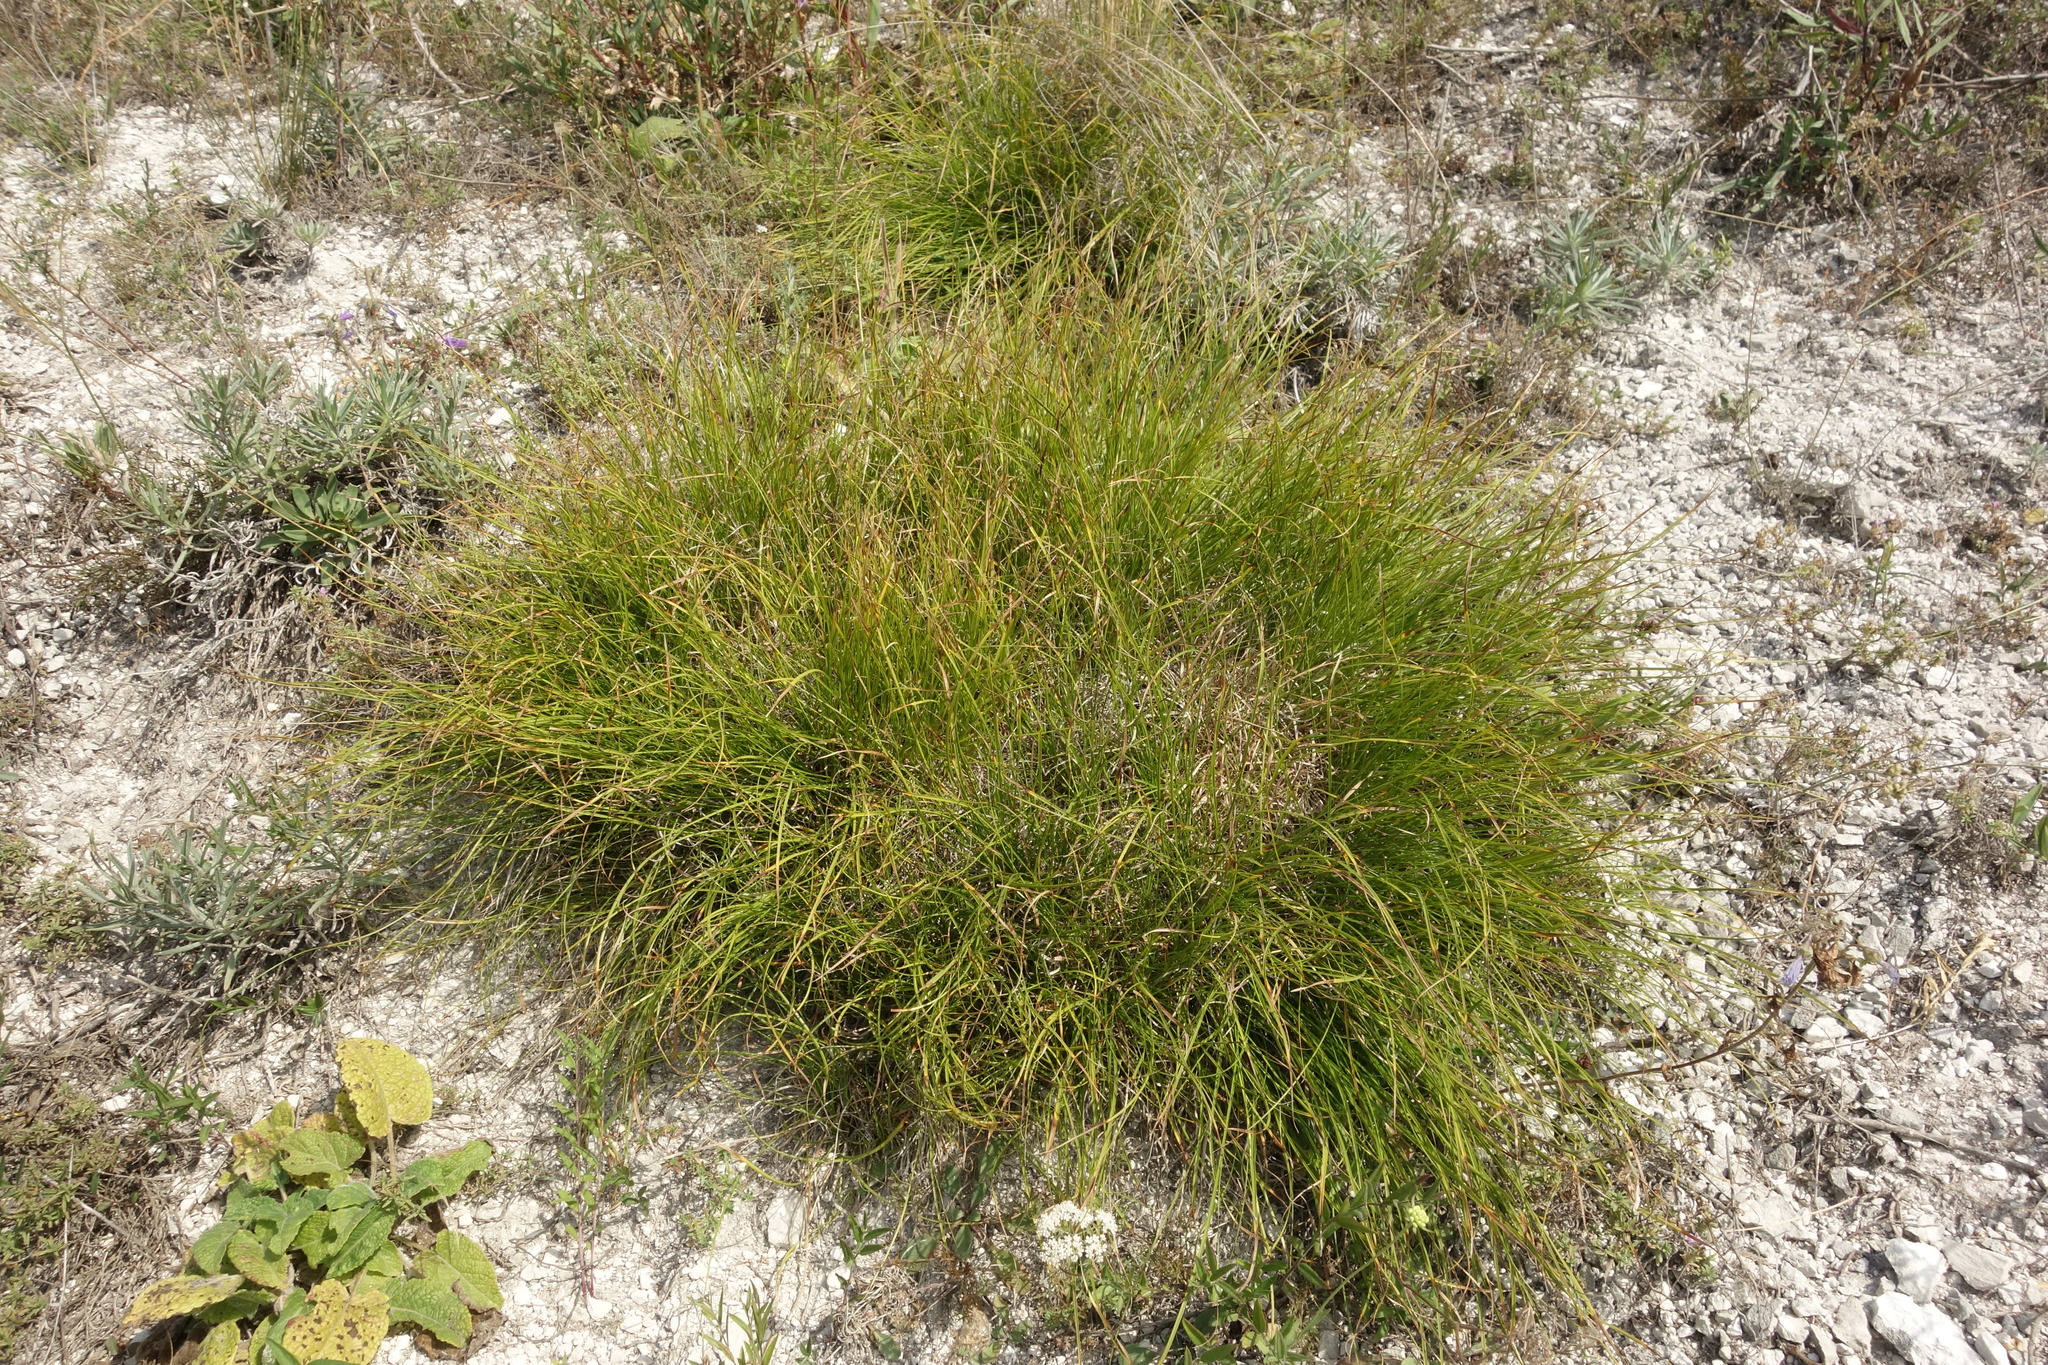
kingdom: Plantae
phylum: Tracheophyta
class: Liliopsida
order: Poales
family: Cyperaceae
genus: Carex
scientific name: Carex humilis
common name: Dwarf sedge
